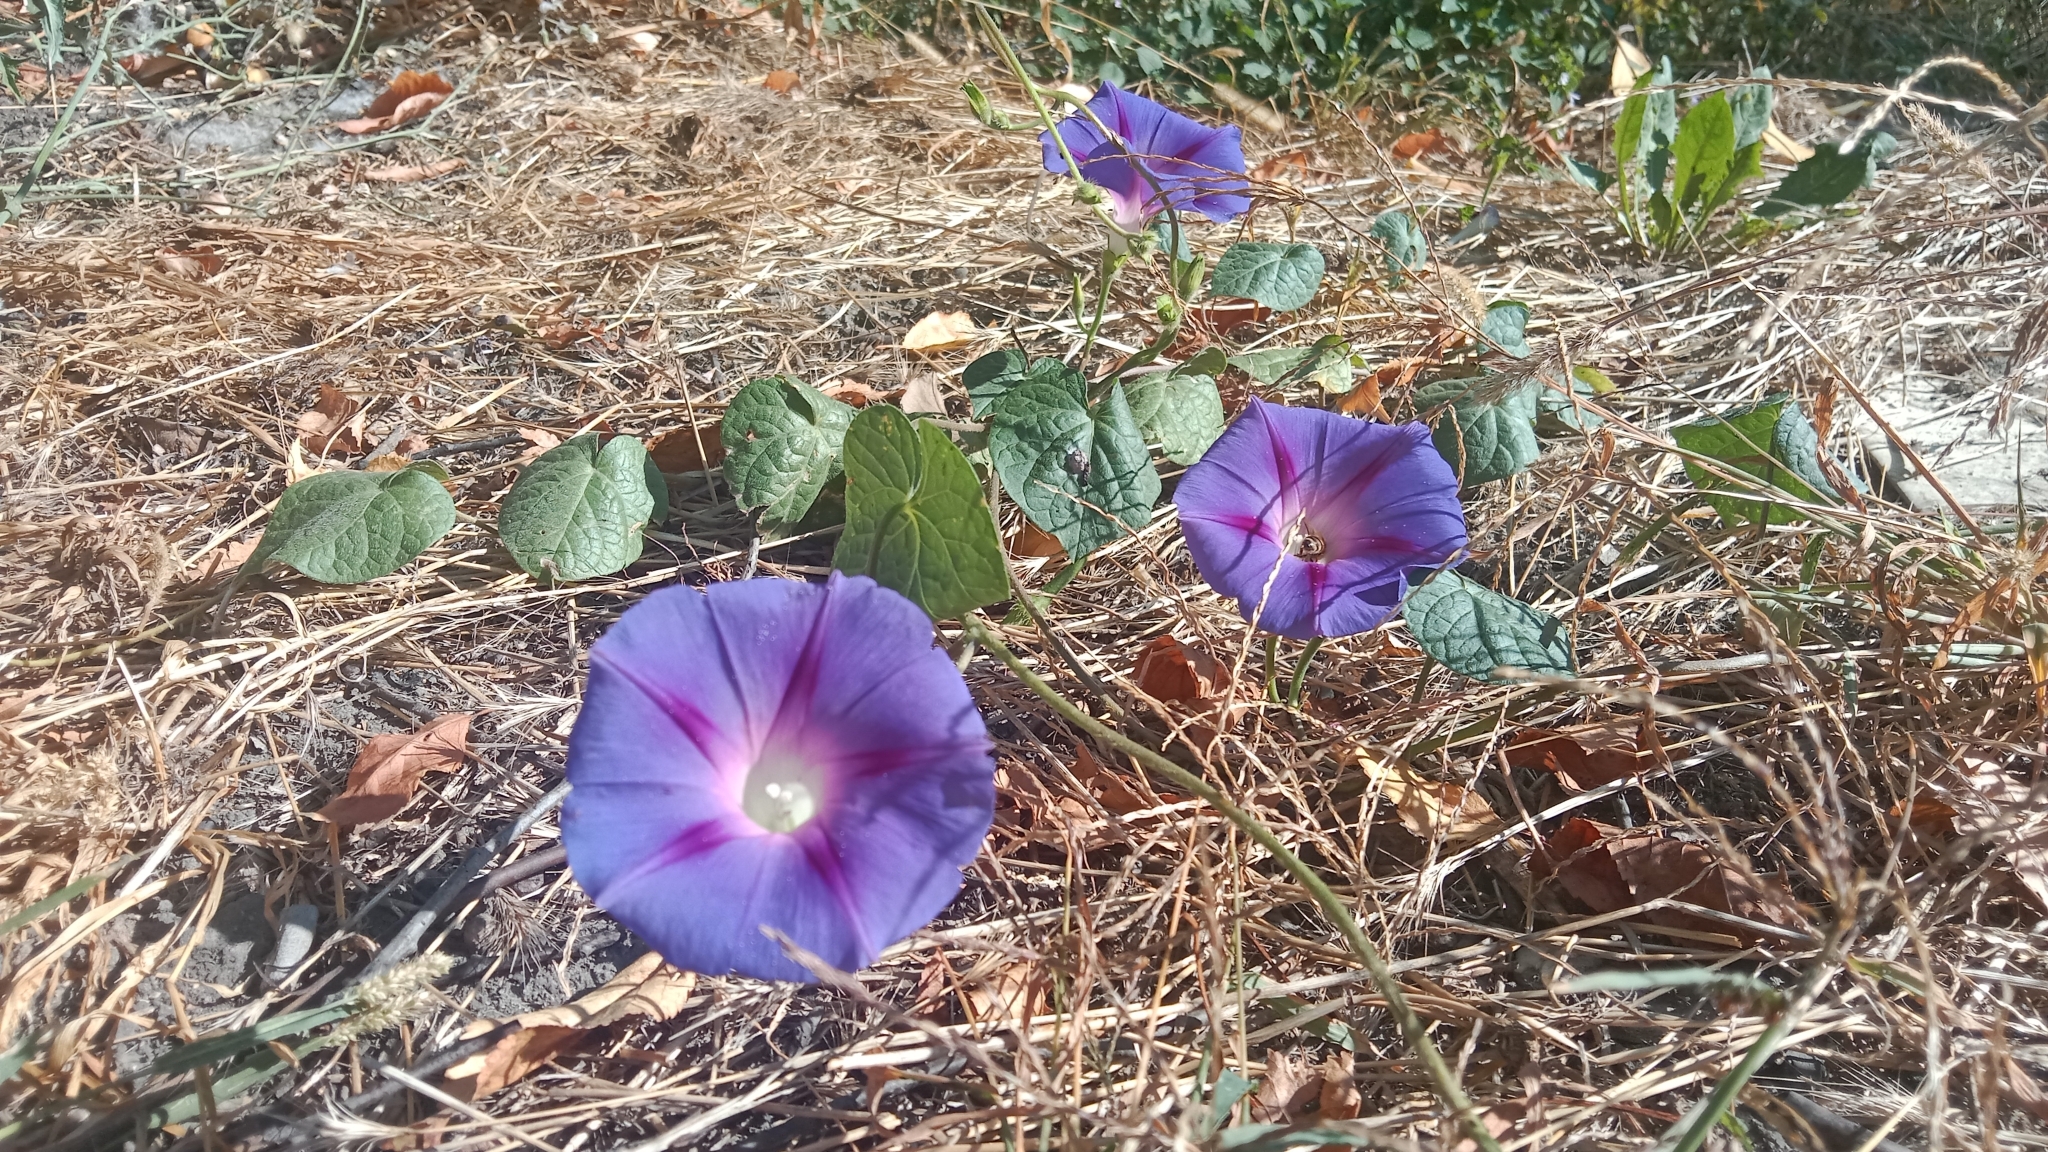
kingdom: Plantae
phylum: Tracheophyta
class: Magnoliopsida
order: Solanales
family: Convolvulaceae
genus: Ipomoea
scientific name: Ipomoea purpurea
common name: Common morning-glory
